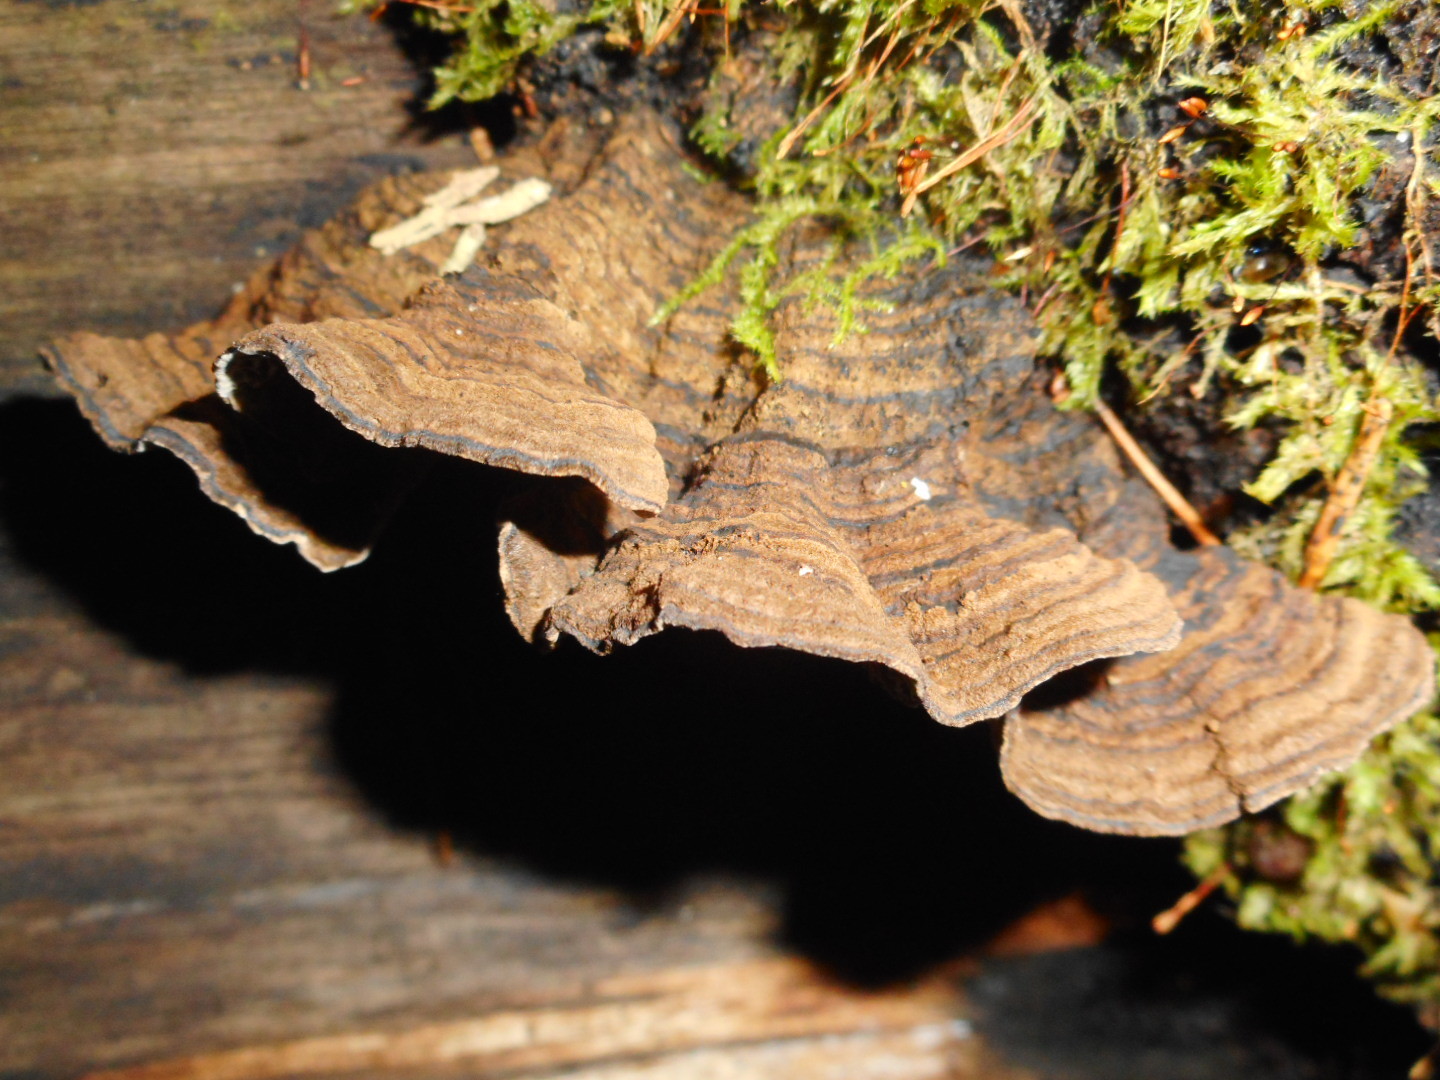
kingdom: Fungi
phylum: Basidiomycota
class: Agaricomycetes
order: Polyporales
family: Polyporaceae
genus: Podofomes
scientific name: Podofomes mollis
